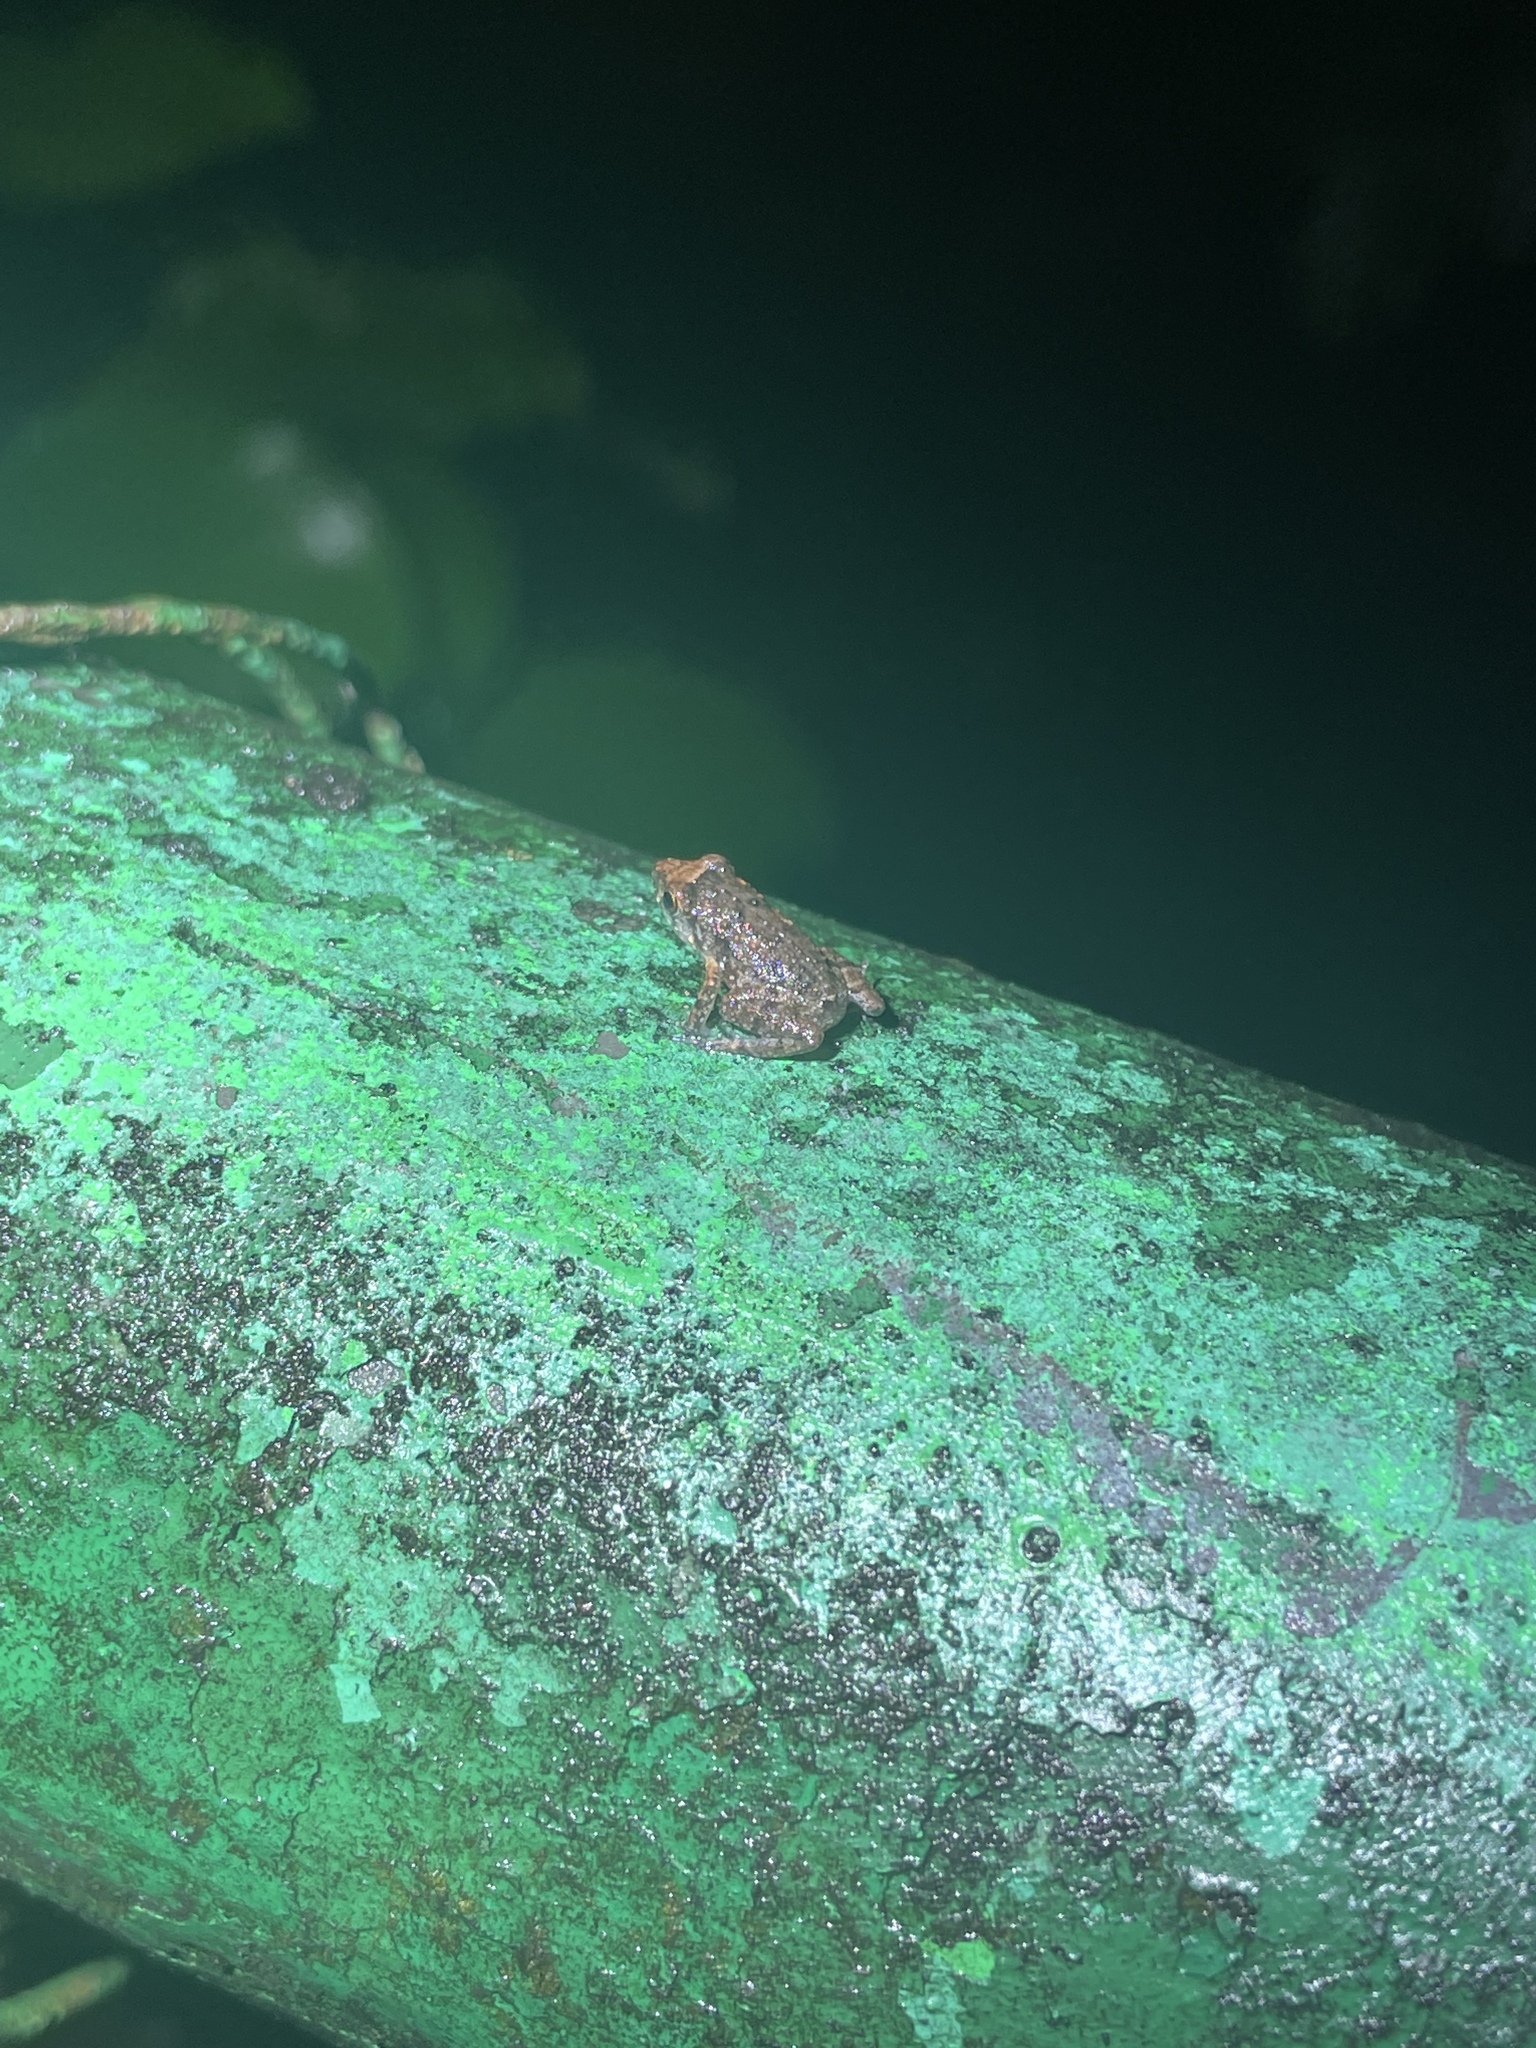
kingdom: Animalia
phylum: Chordata
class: Amphibia
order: Anura
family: Eleutherodactylidae
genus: Eleutherodactylus
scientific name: Eleutherodactylus planirostris
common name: Greenhouse frog
